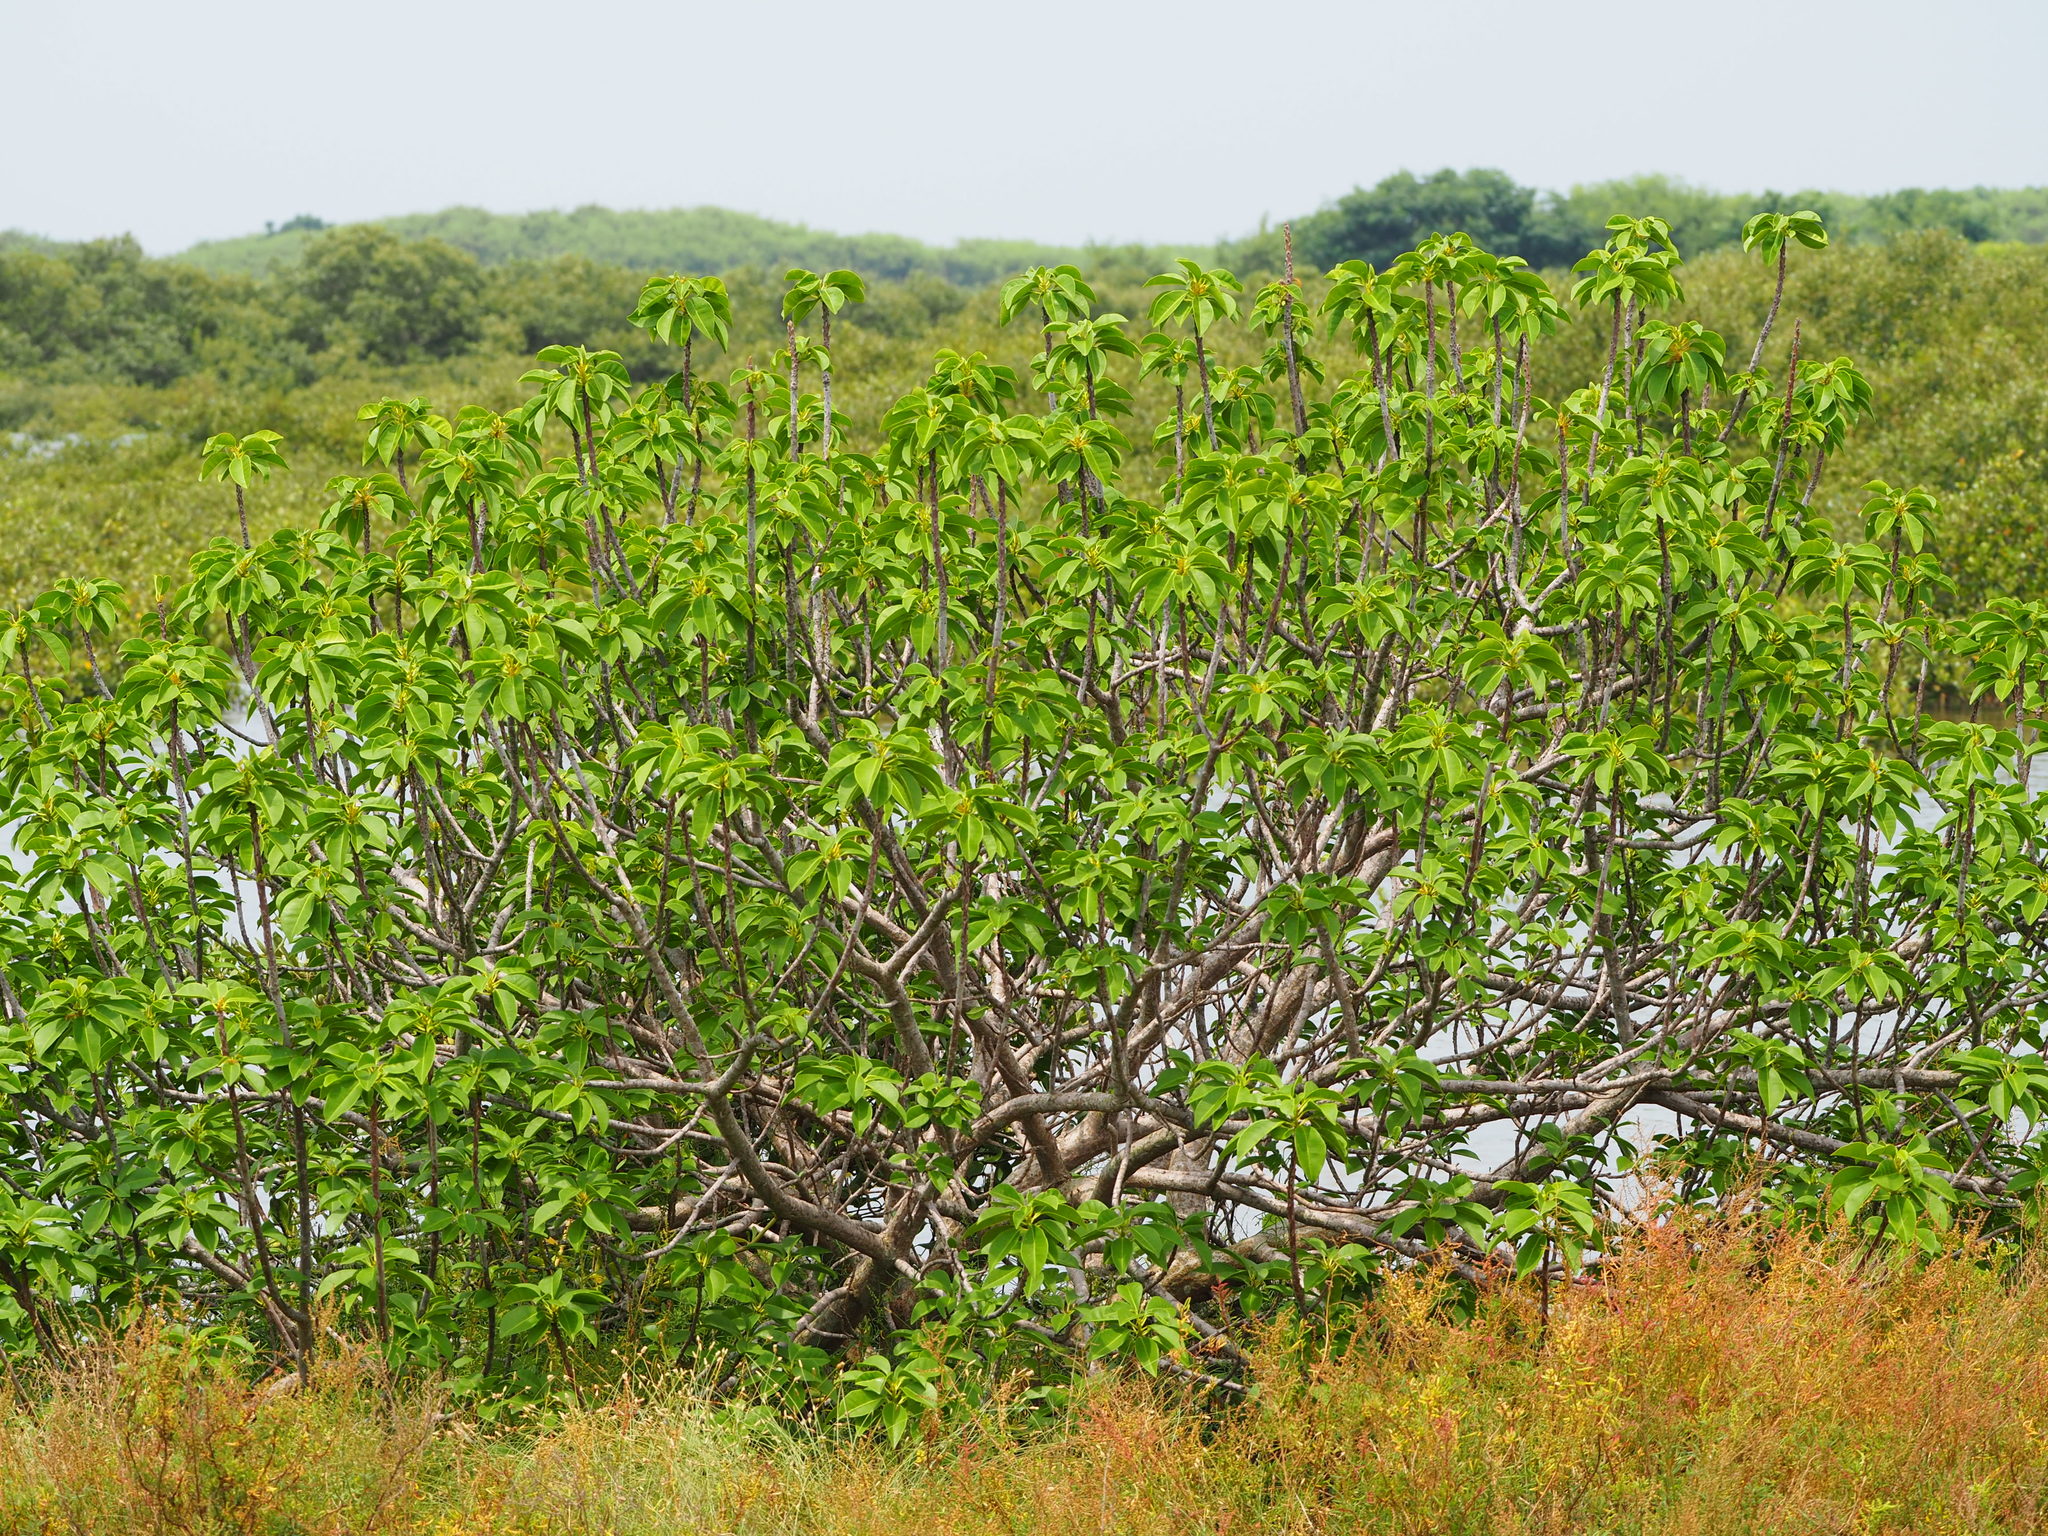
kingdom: Plantae
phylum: Tracheophyta
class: Magnoliopsida
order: Malpighiales
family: Euphorbiaceae
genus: Excoecaria
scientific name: Excoecaria agallocha
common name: River poisontree
